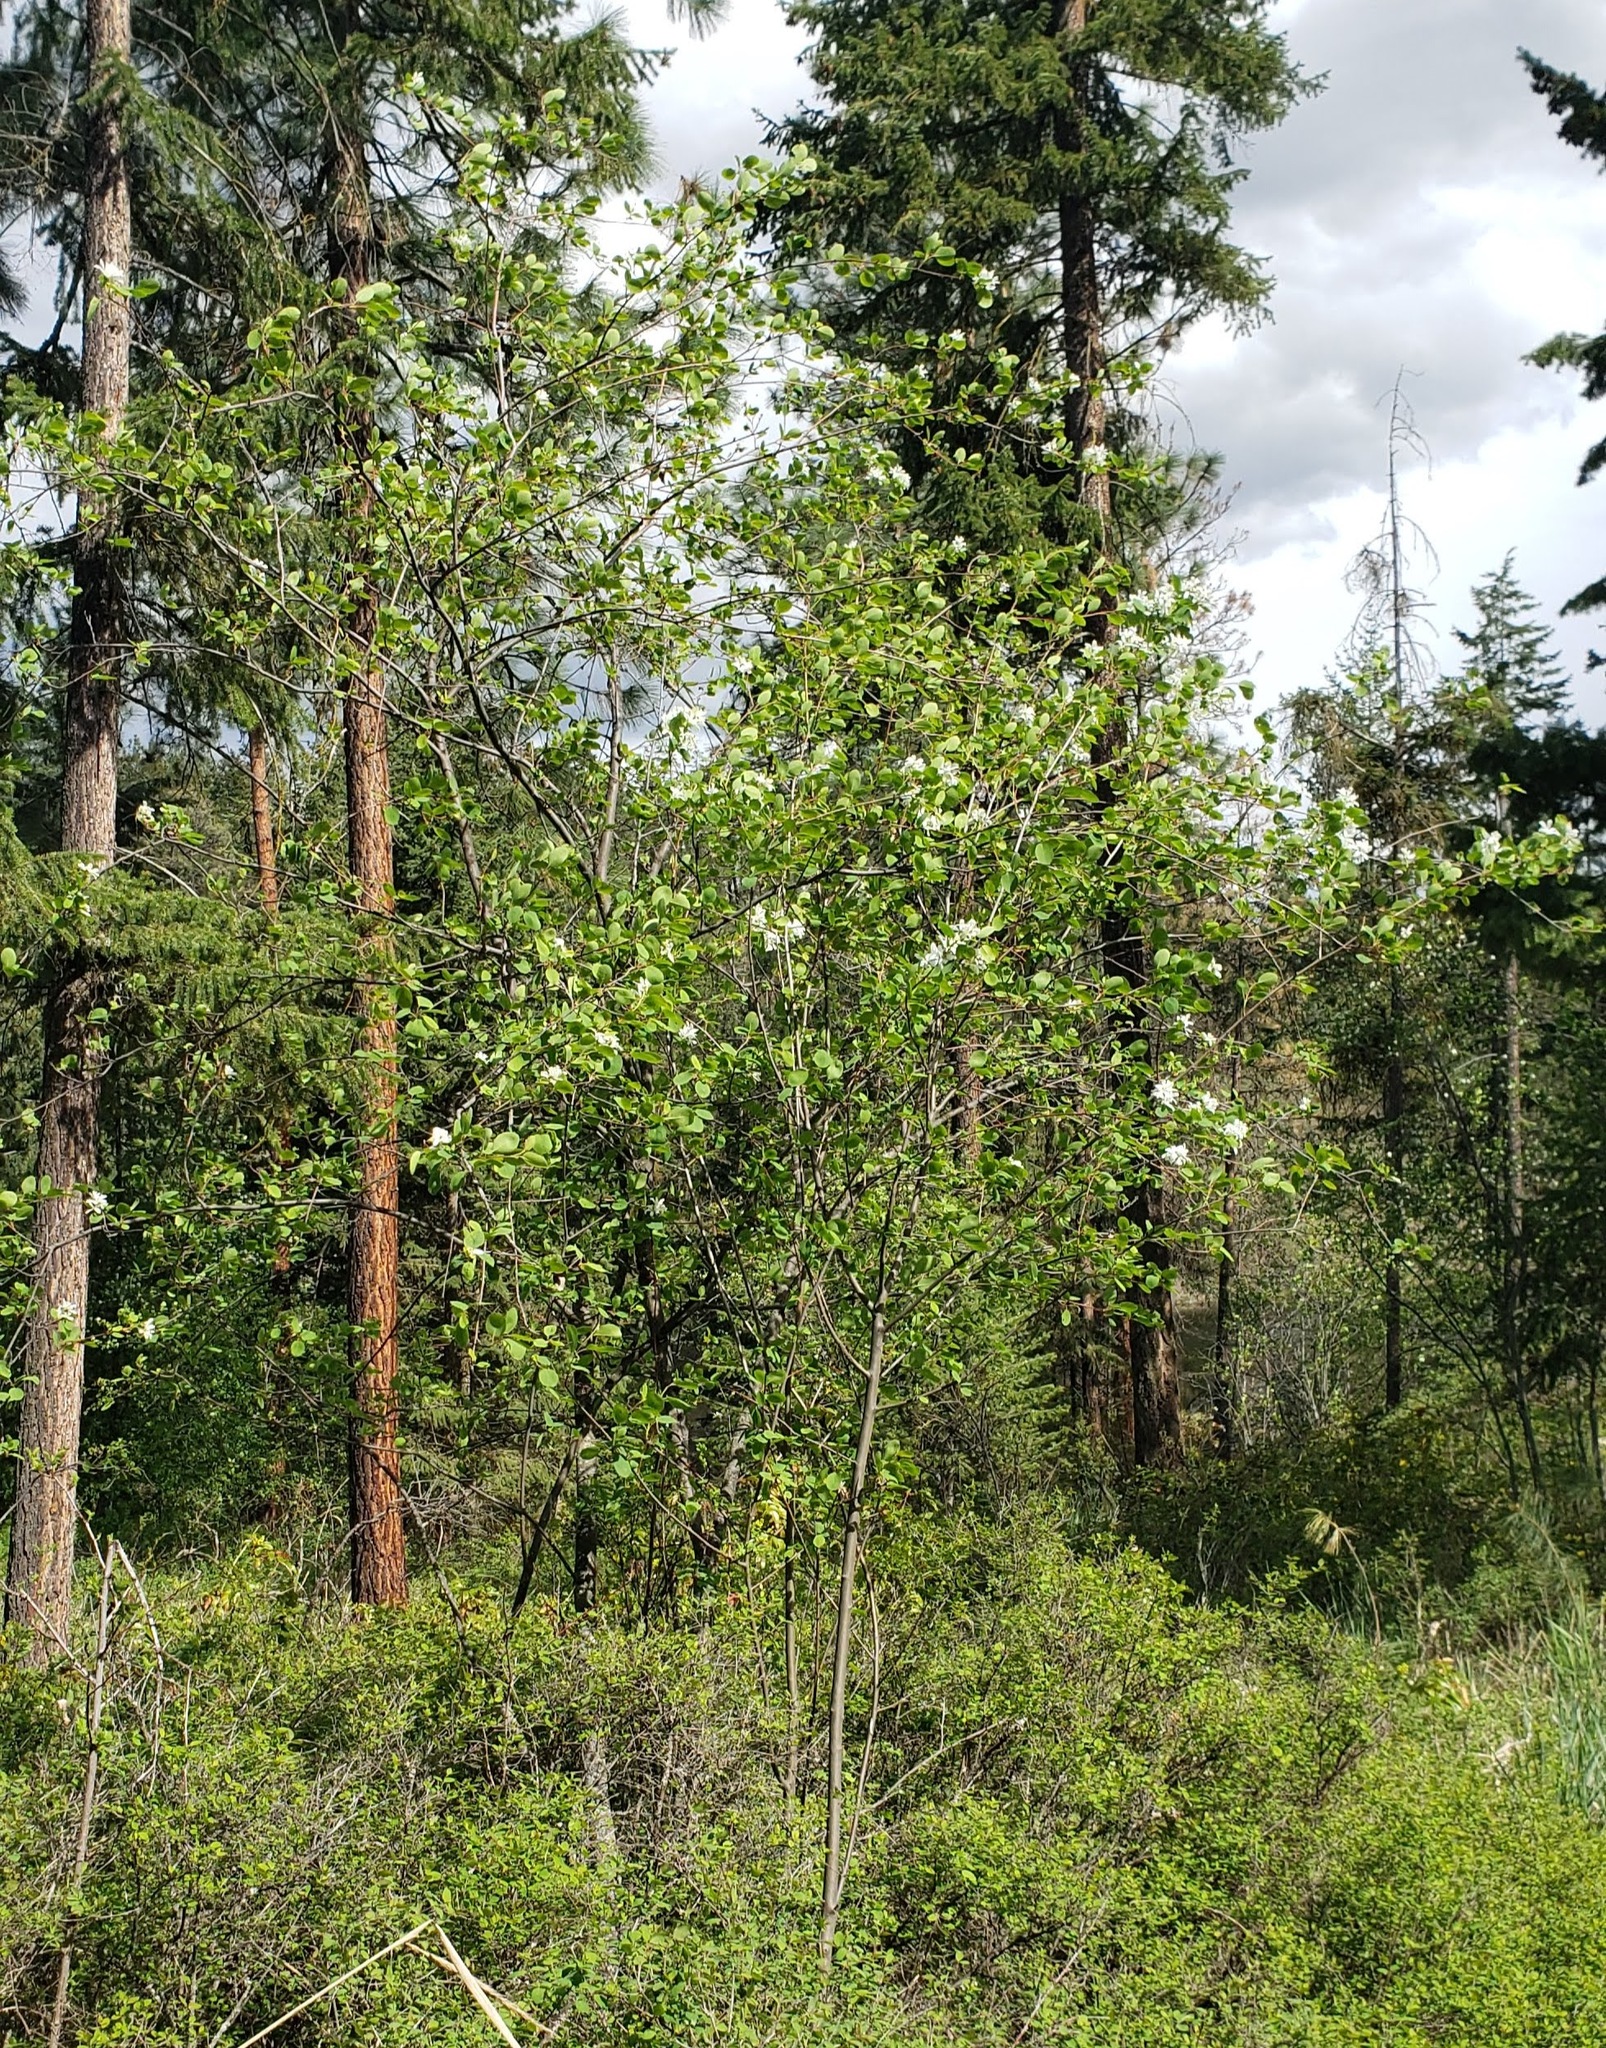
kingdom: Plantae
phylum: Tracheophyta
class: Magnoliopsida
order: Rosales
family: Rosaceae
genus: Amelanchier
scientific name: Amelanchier alnifolia
